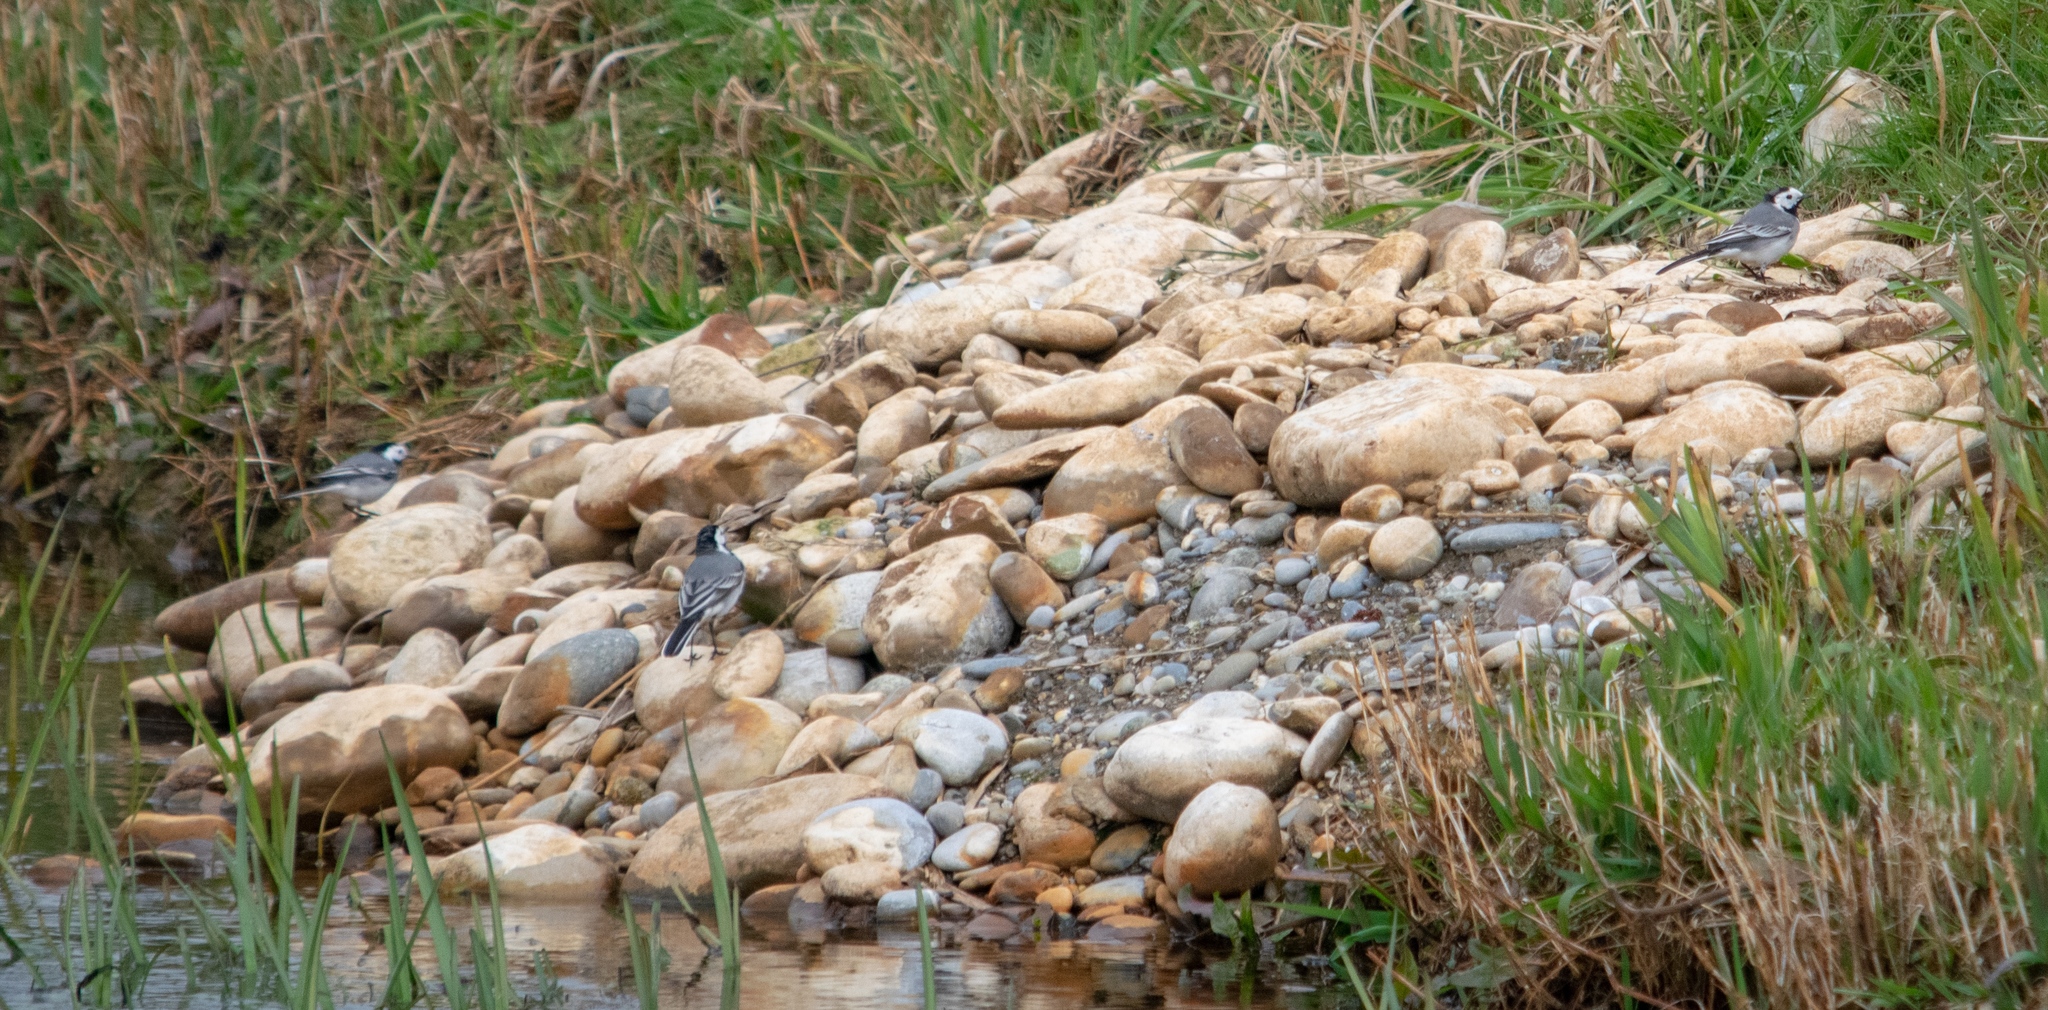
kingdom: Animalia
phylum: Chordata
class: Aves
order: Passeriformes
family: Motacillidae
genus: Motacilla
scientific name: Motacilla alba
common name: White wagtail
